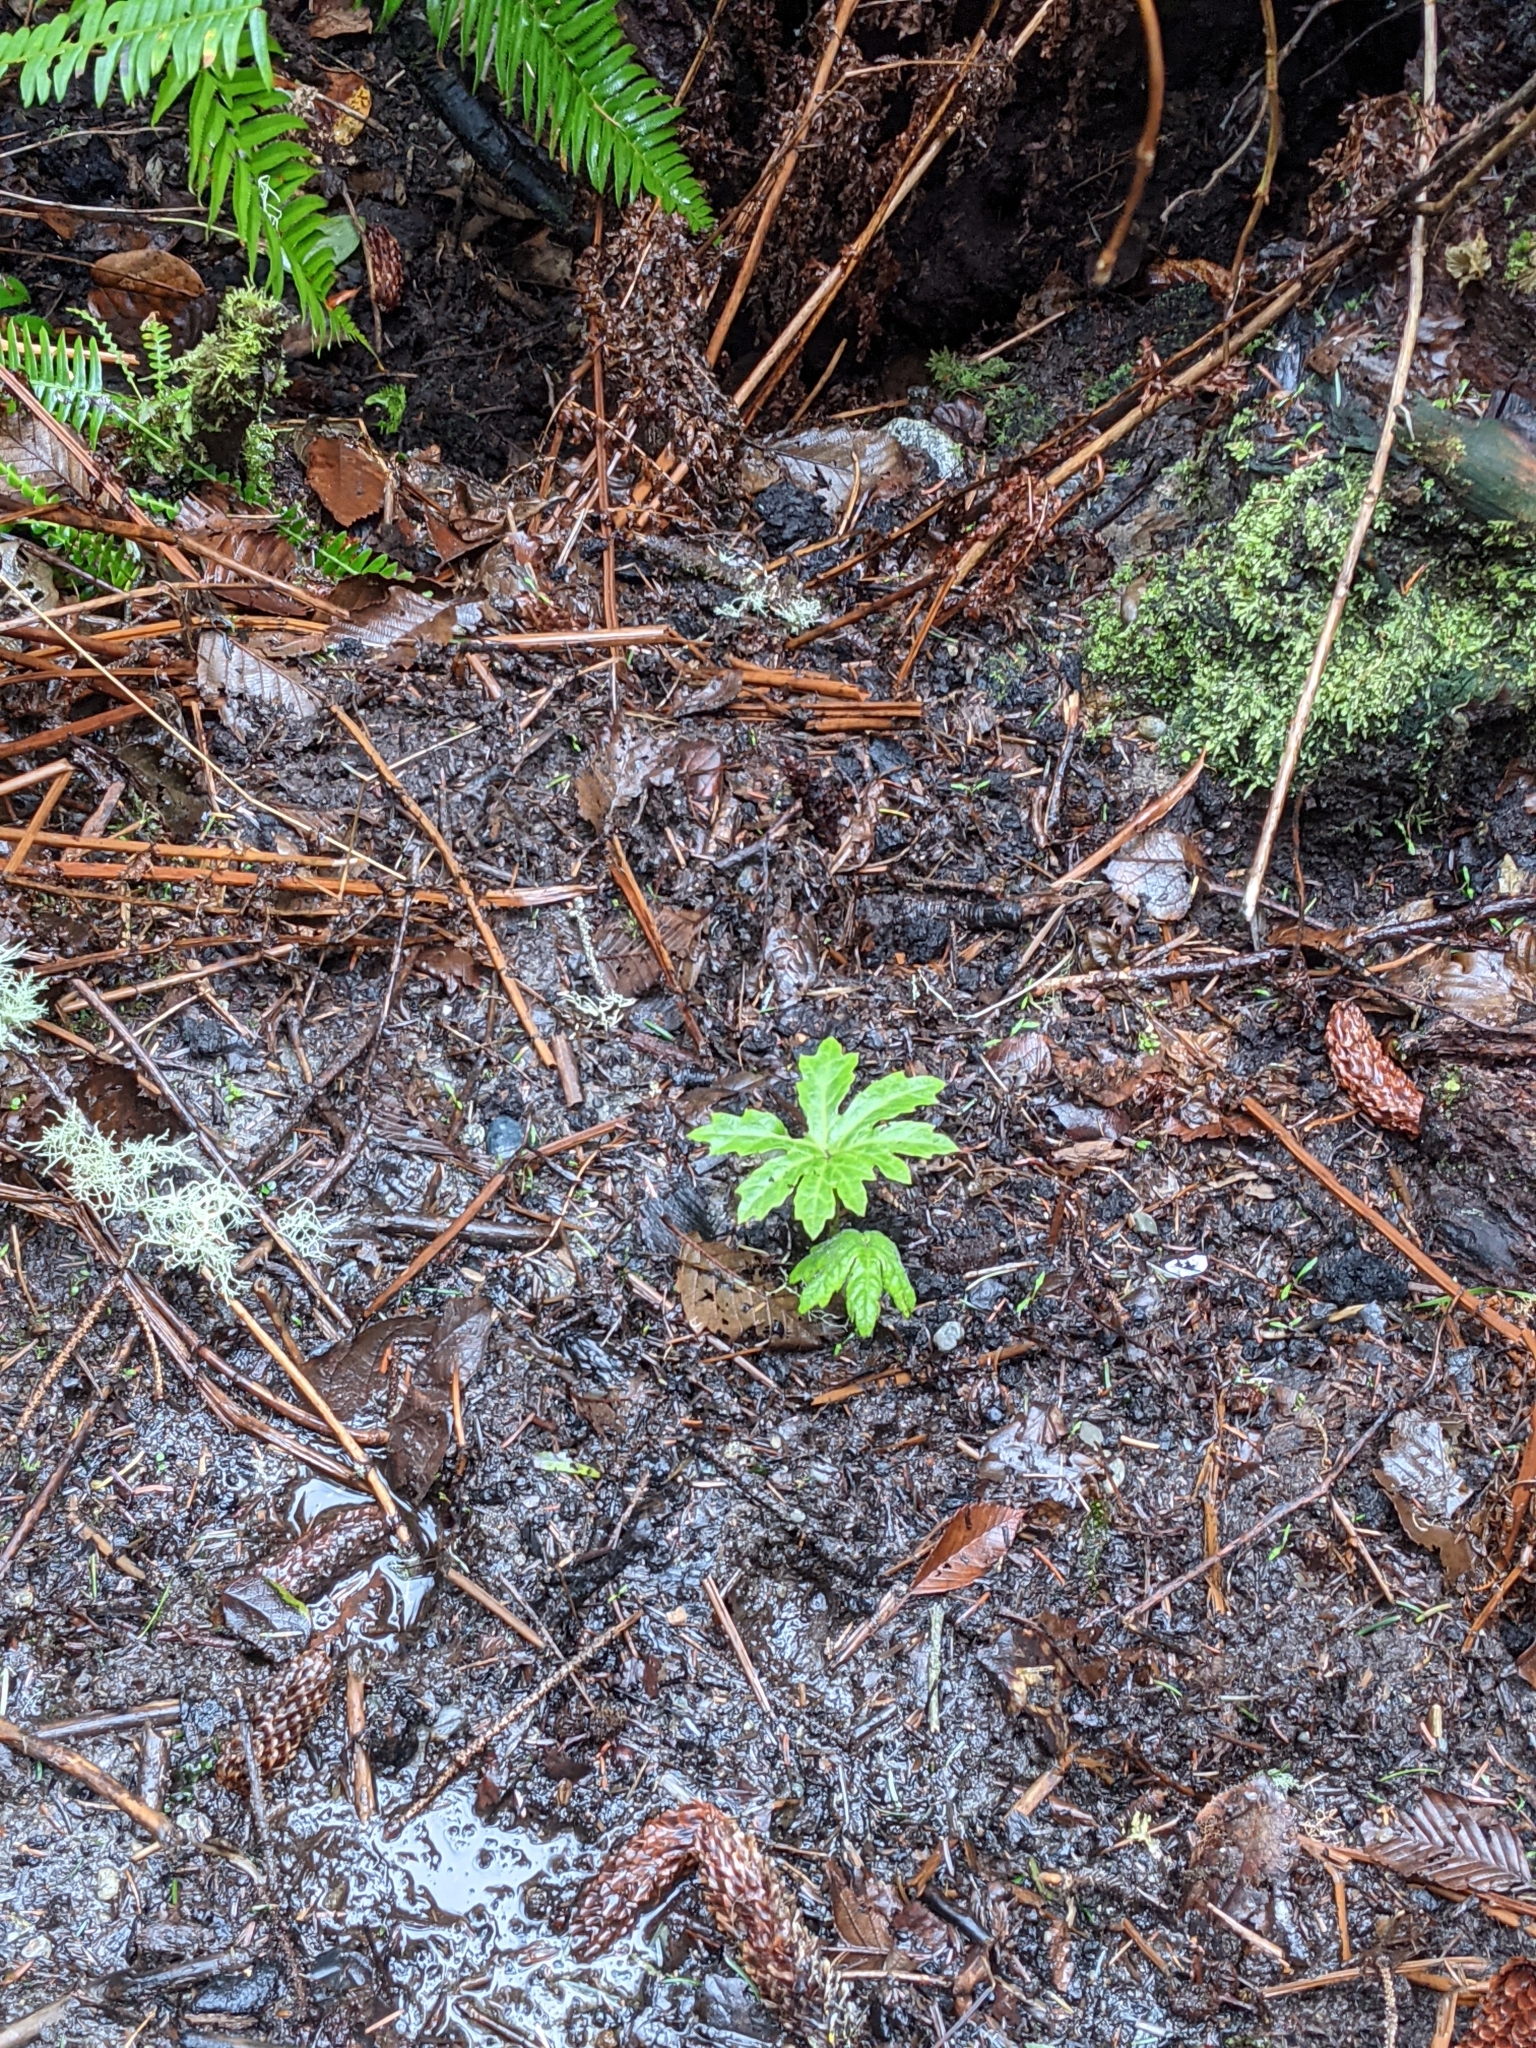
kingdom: Plantae
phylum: Tracheophyta
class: Magnoliopsida
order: Asterales
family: Asteraceae
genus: Petasites
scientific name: Petasites frigidus
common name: Arctic butterbur
